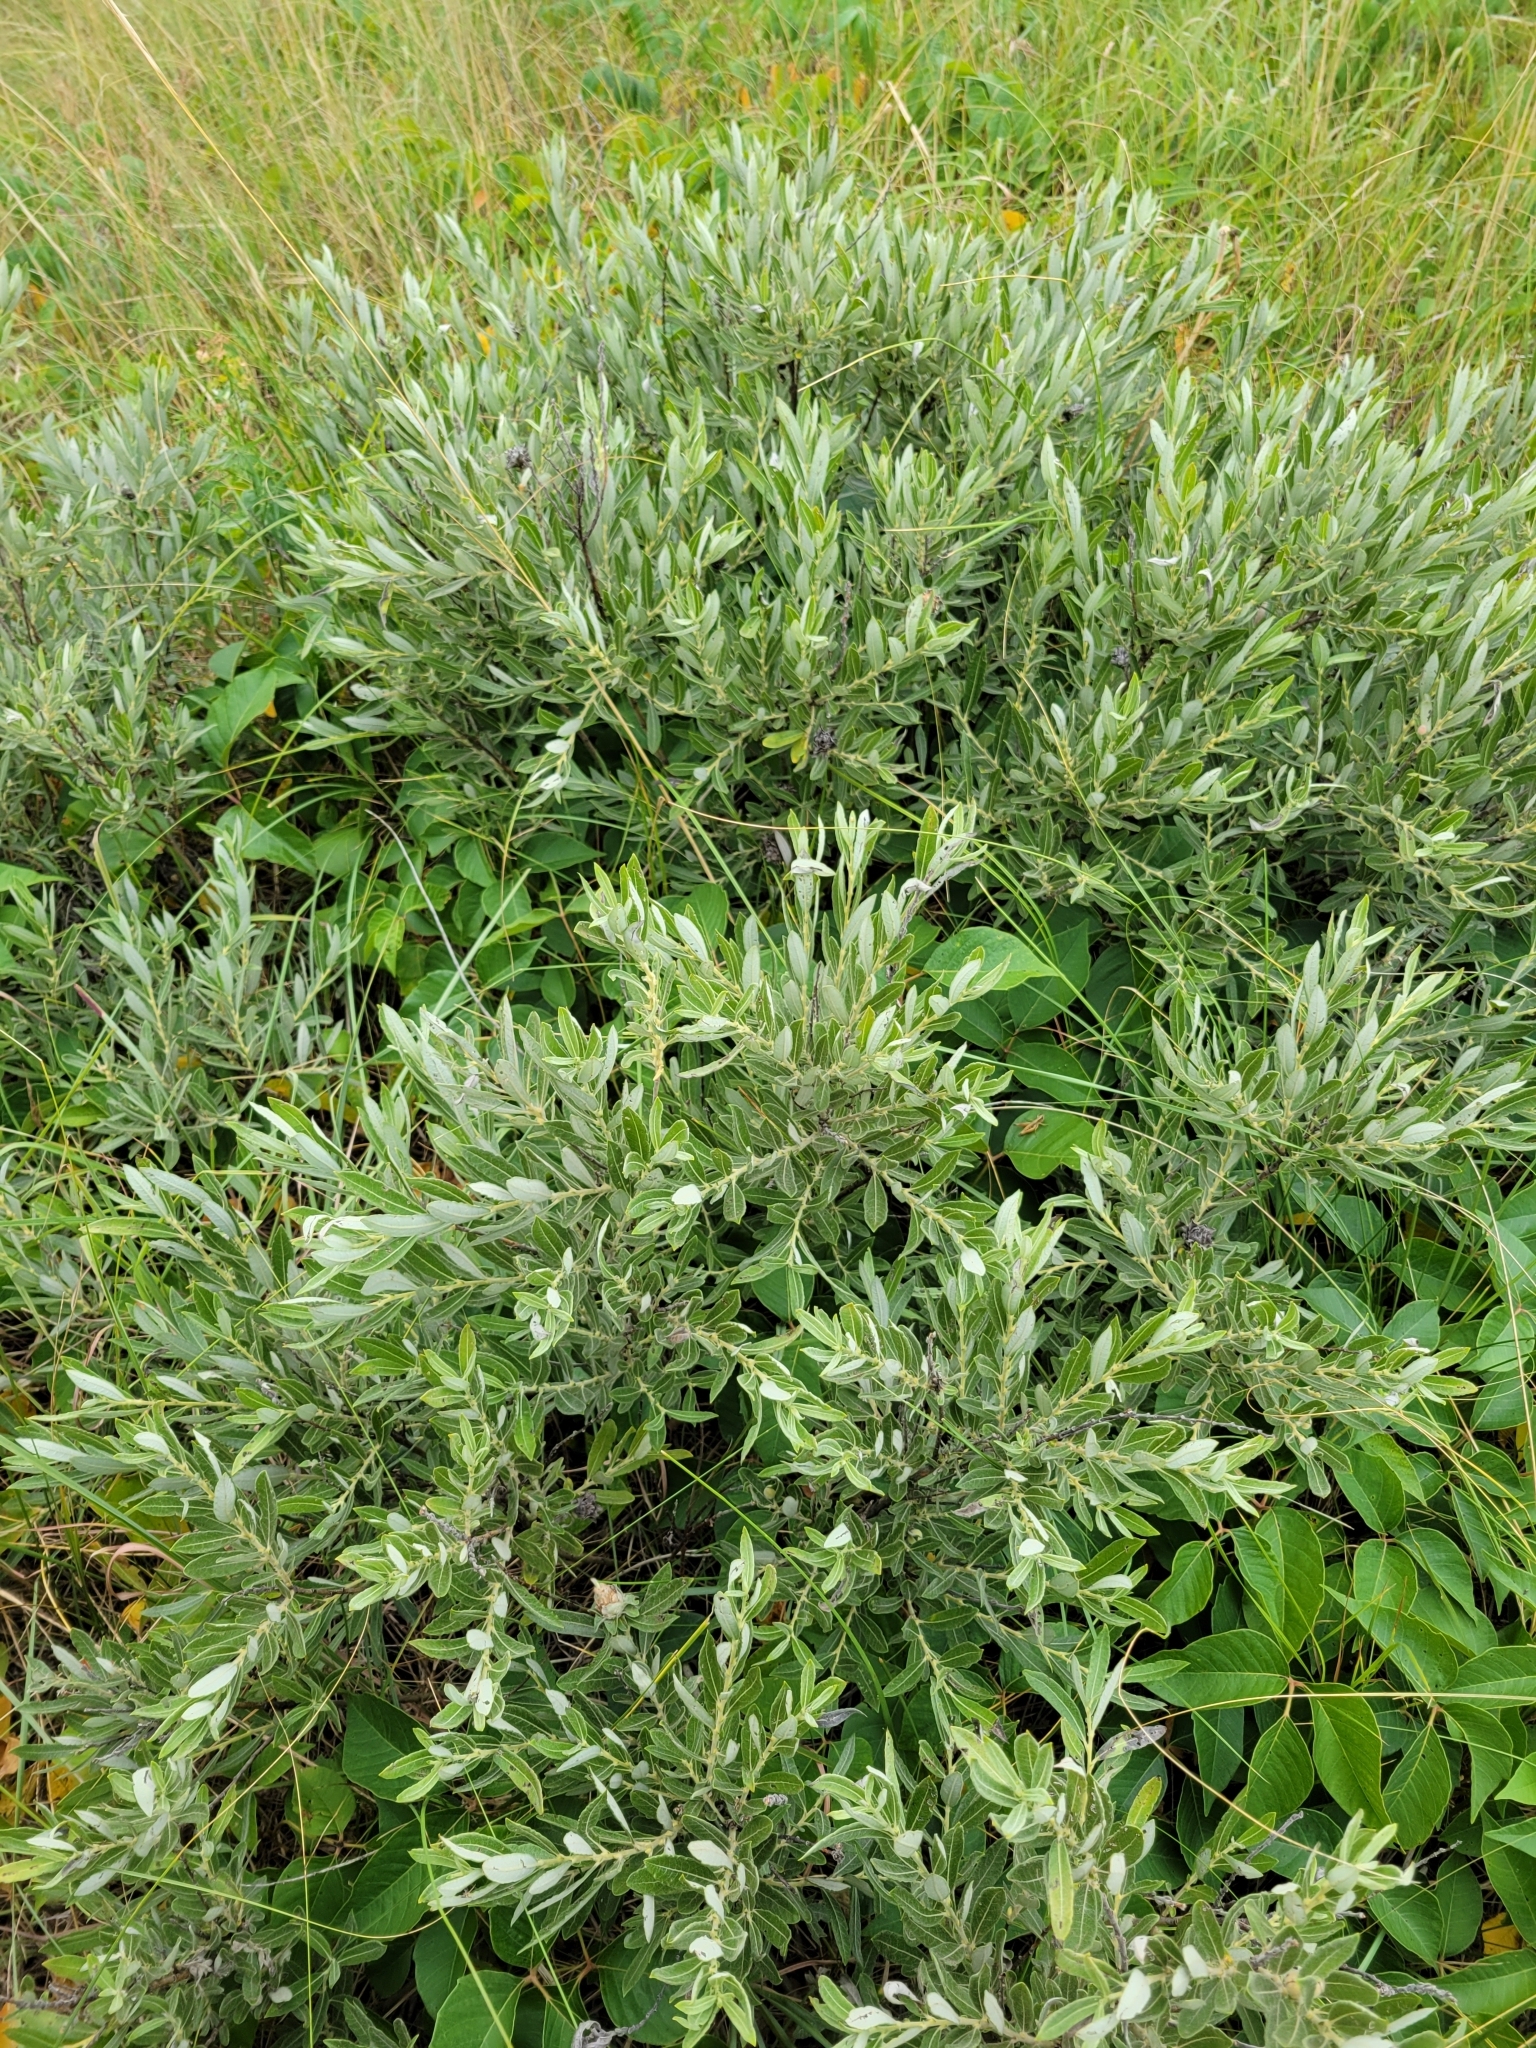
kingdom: Plantae
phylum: Tracheophyta
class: Magnoliopsida
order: Malpighiales
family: Salicaceae
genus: Salix
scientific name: Salix humilis
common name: Prairie willow
